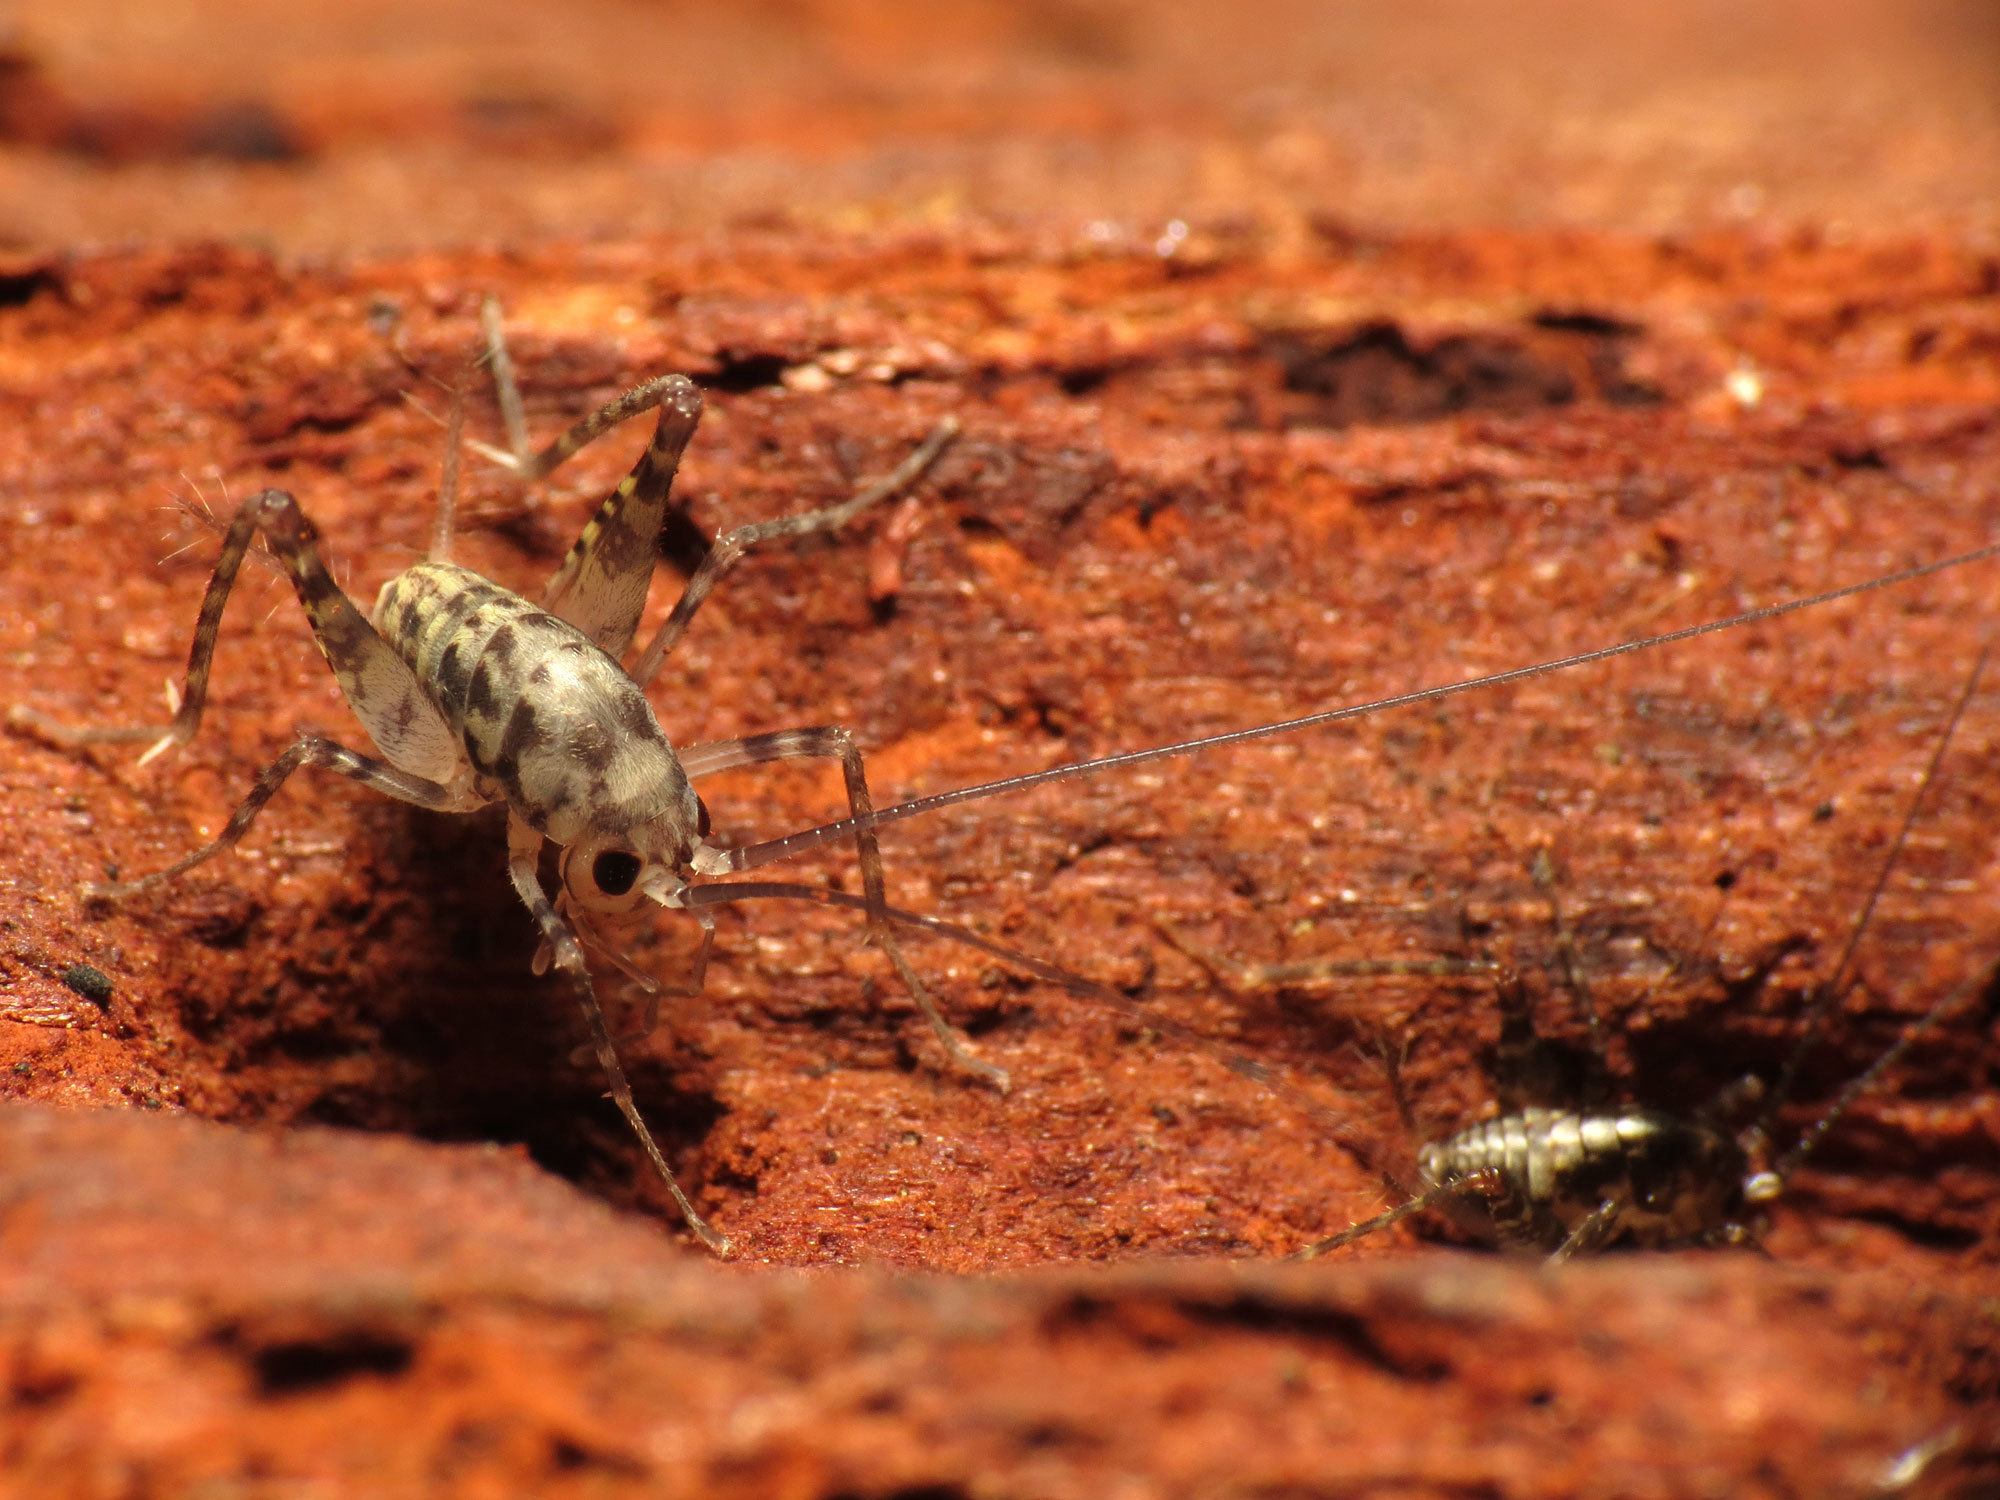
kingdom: Animalia
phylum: Arthropoda
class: Insecta
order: Orthoptera
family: Rhaphidophoridae
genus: Tachycines
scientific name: Tachycines asynamorus
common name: Greenhouse camel cricket
